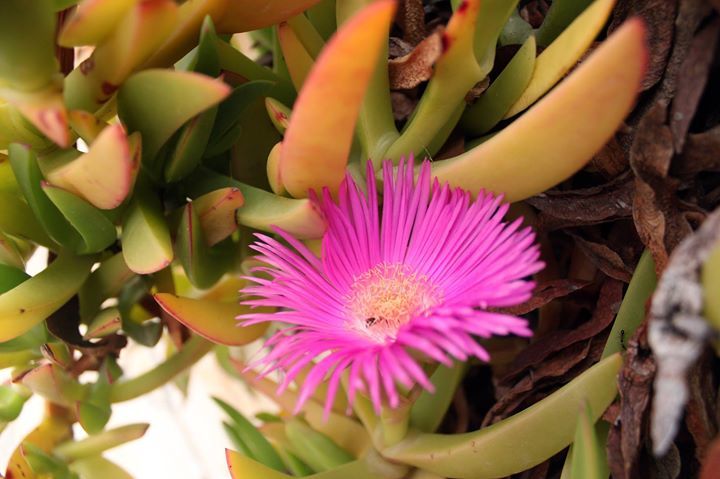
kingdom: Plantae
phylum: Tracheophyta
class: Magnoliopsida
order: Caryophyllales
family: Aizoaceae
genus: Carpobrotus
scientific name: Carpobrotus edulis
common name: Hottentot-fig
